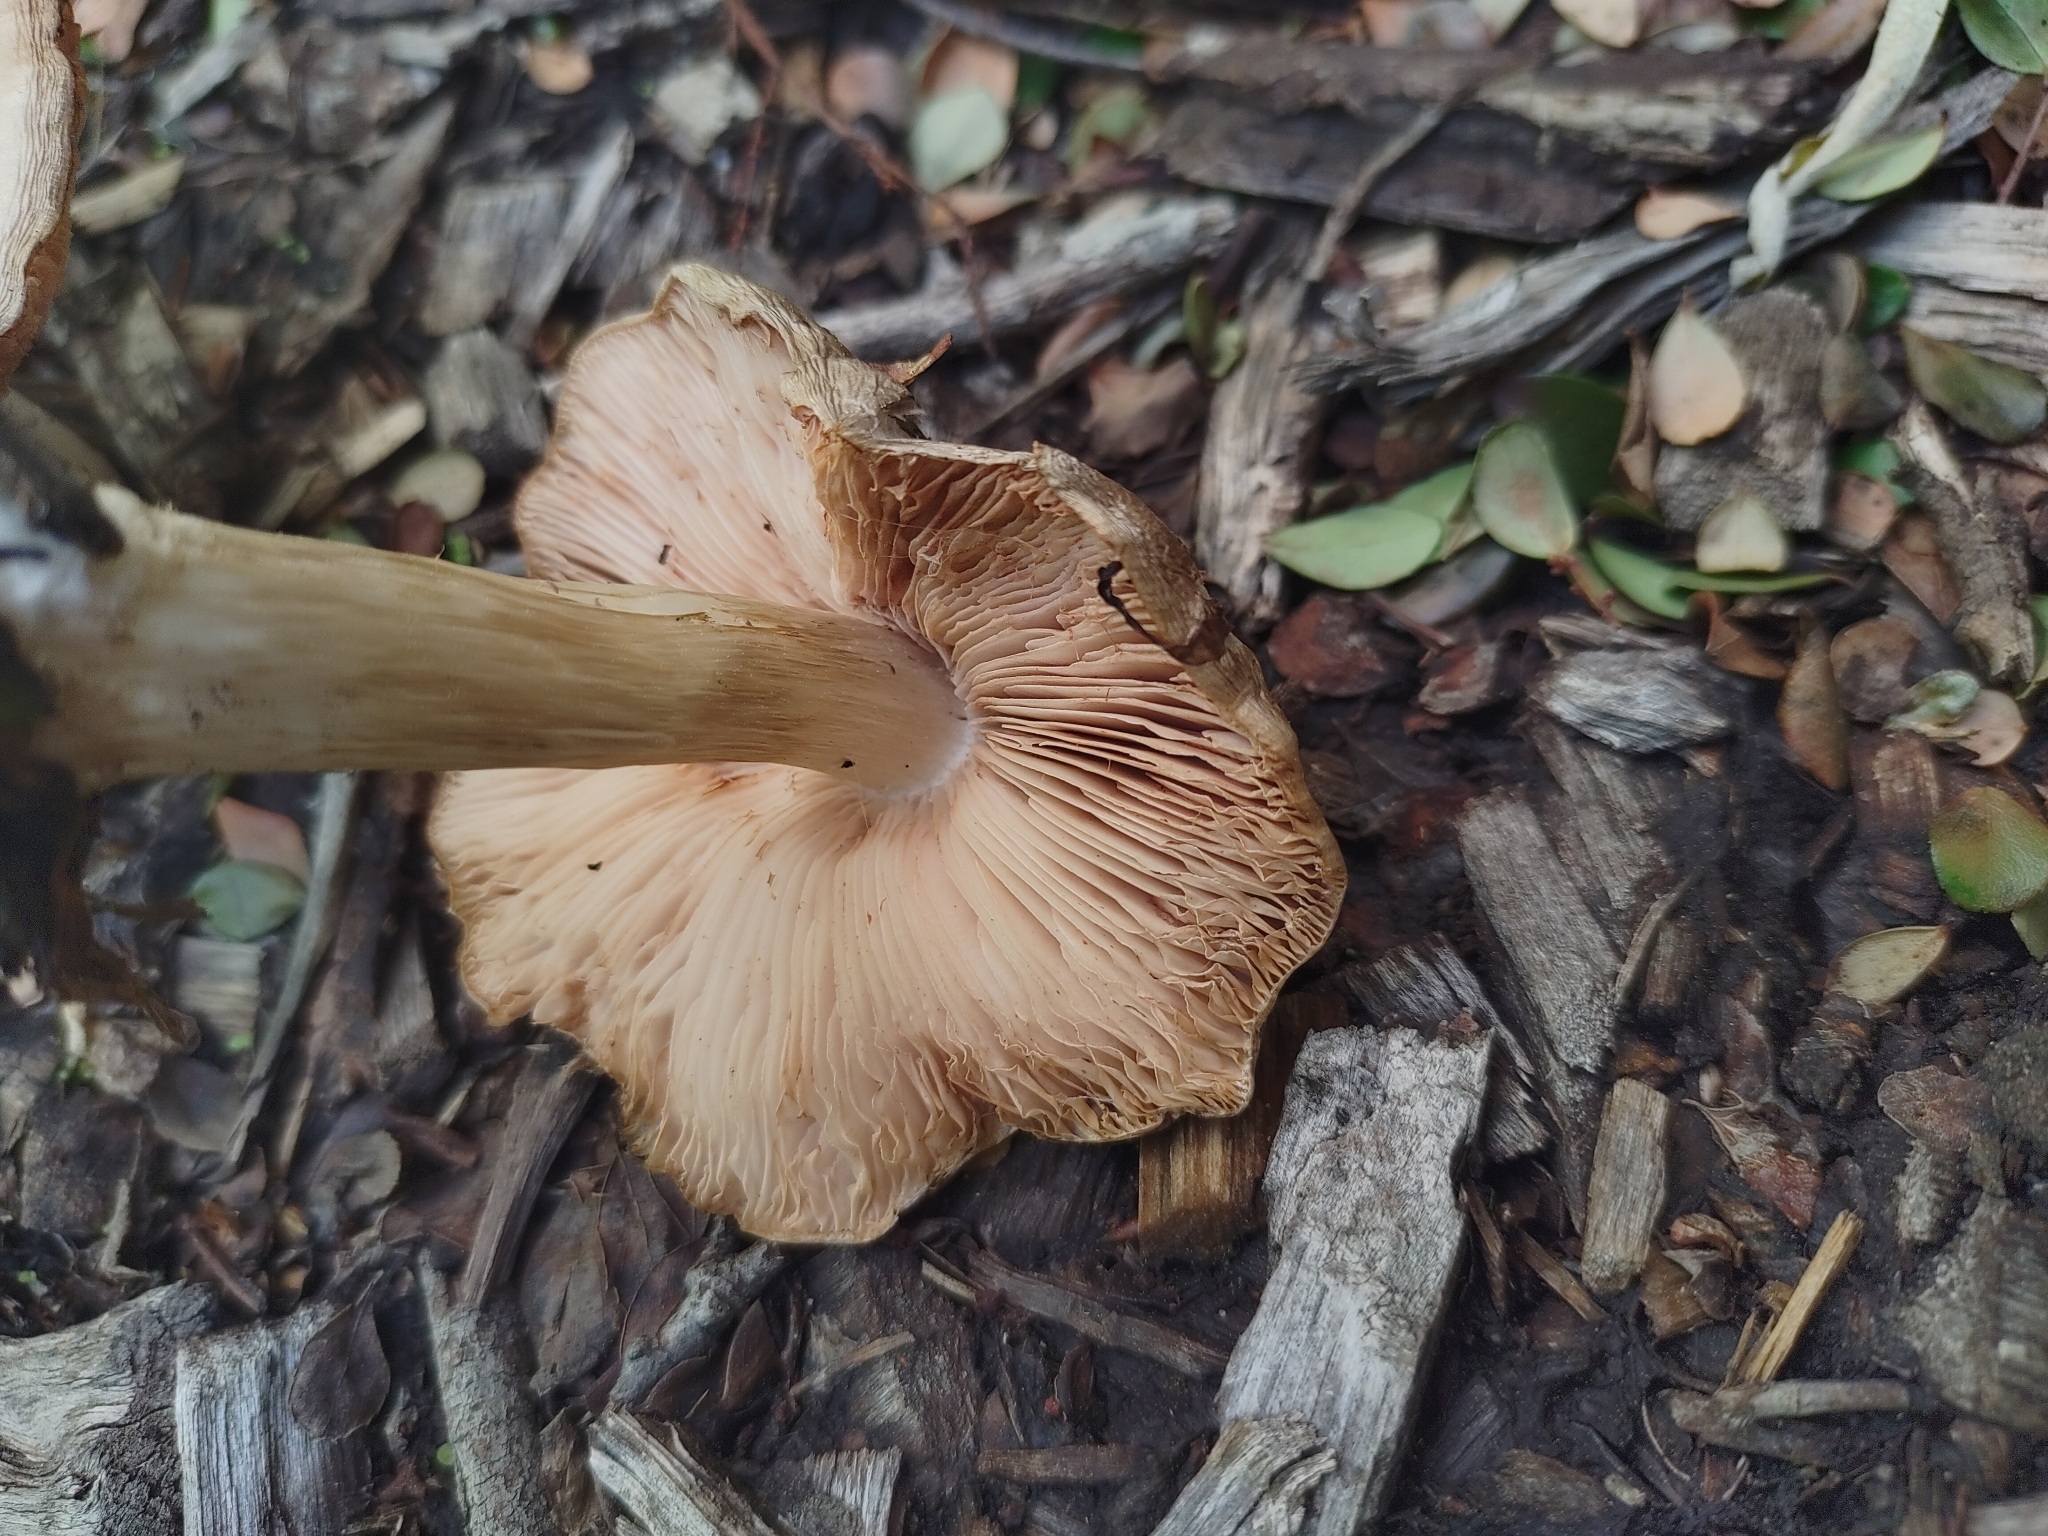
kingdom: Fungi
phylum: Basidiomycota
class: Agaricomycetes
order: Agaricales
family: Pluteaceae
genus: Volvopluteus
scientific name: Volvopluteus gloiocephalus
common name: Stubble rosegill
